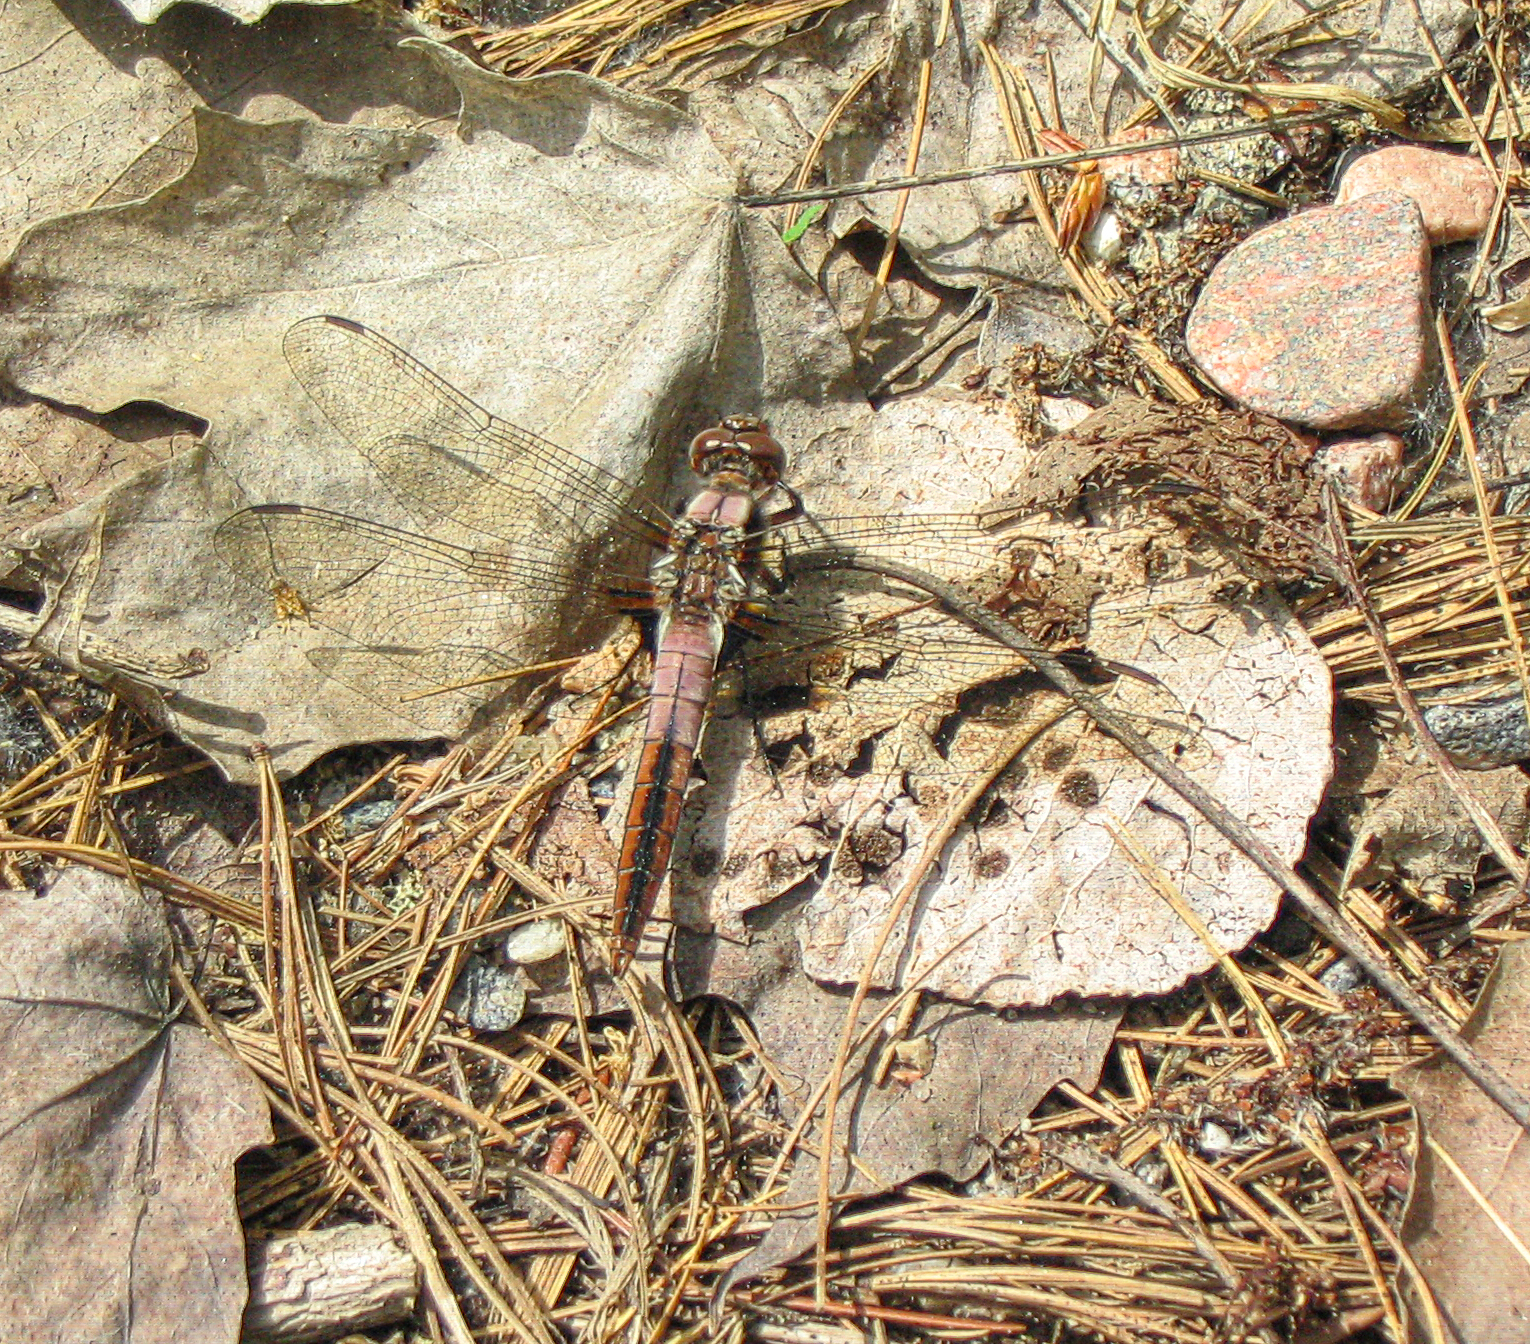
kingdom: Animalia
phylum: Arthropoda
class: Insecta
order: Odonata
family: Libellulidae
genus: Ladona
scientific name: Ladona julia
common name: Chalk-fronted corporal
